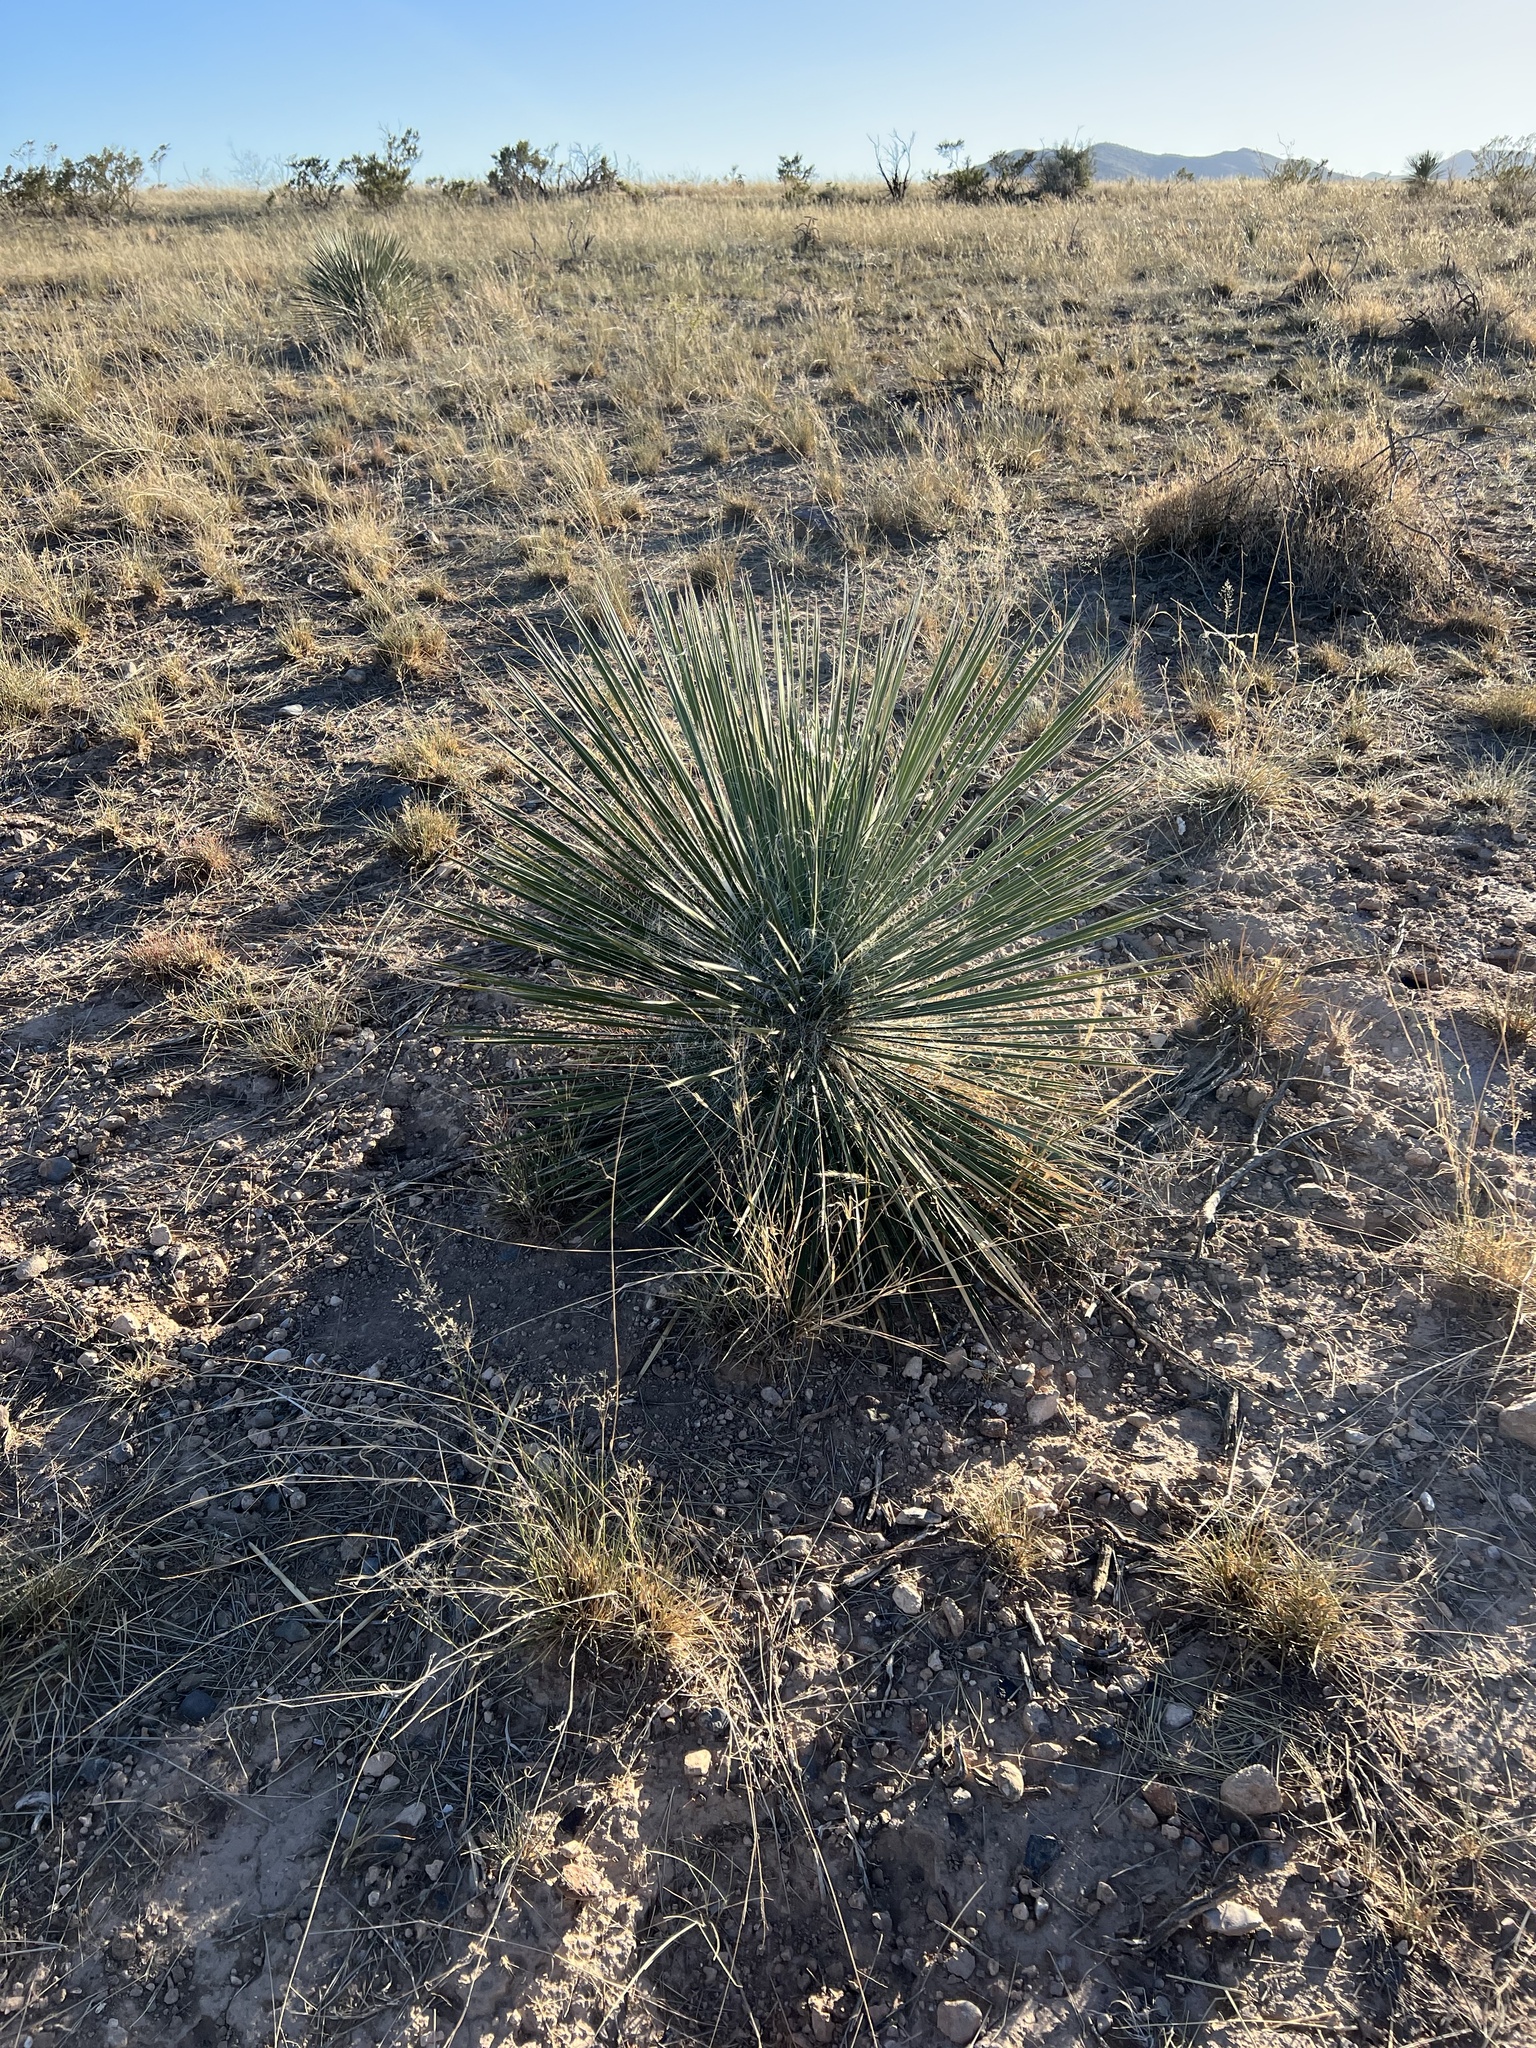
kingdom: Plantae
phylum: Tracheophyta
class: Liliopsida
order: Asparagales
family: Asparagaceae
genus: Yucca
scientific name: Yucca elata
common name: Palmella
